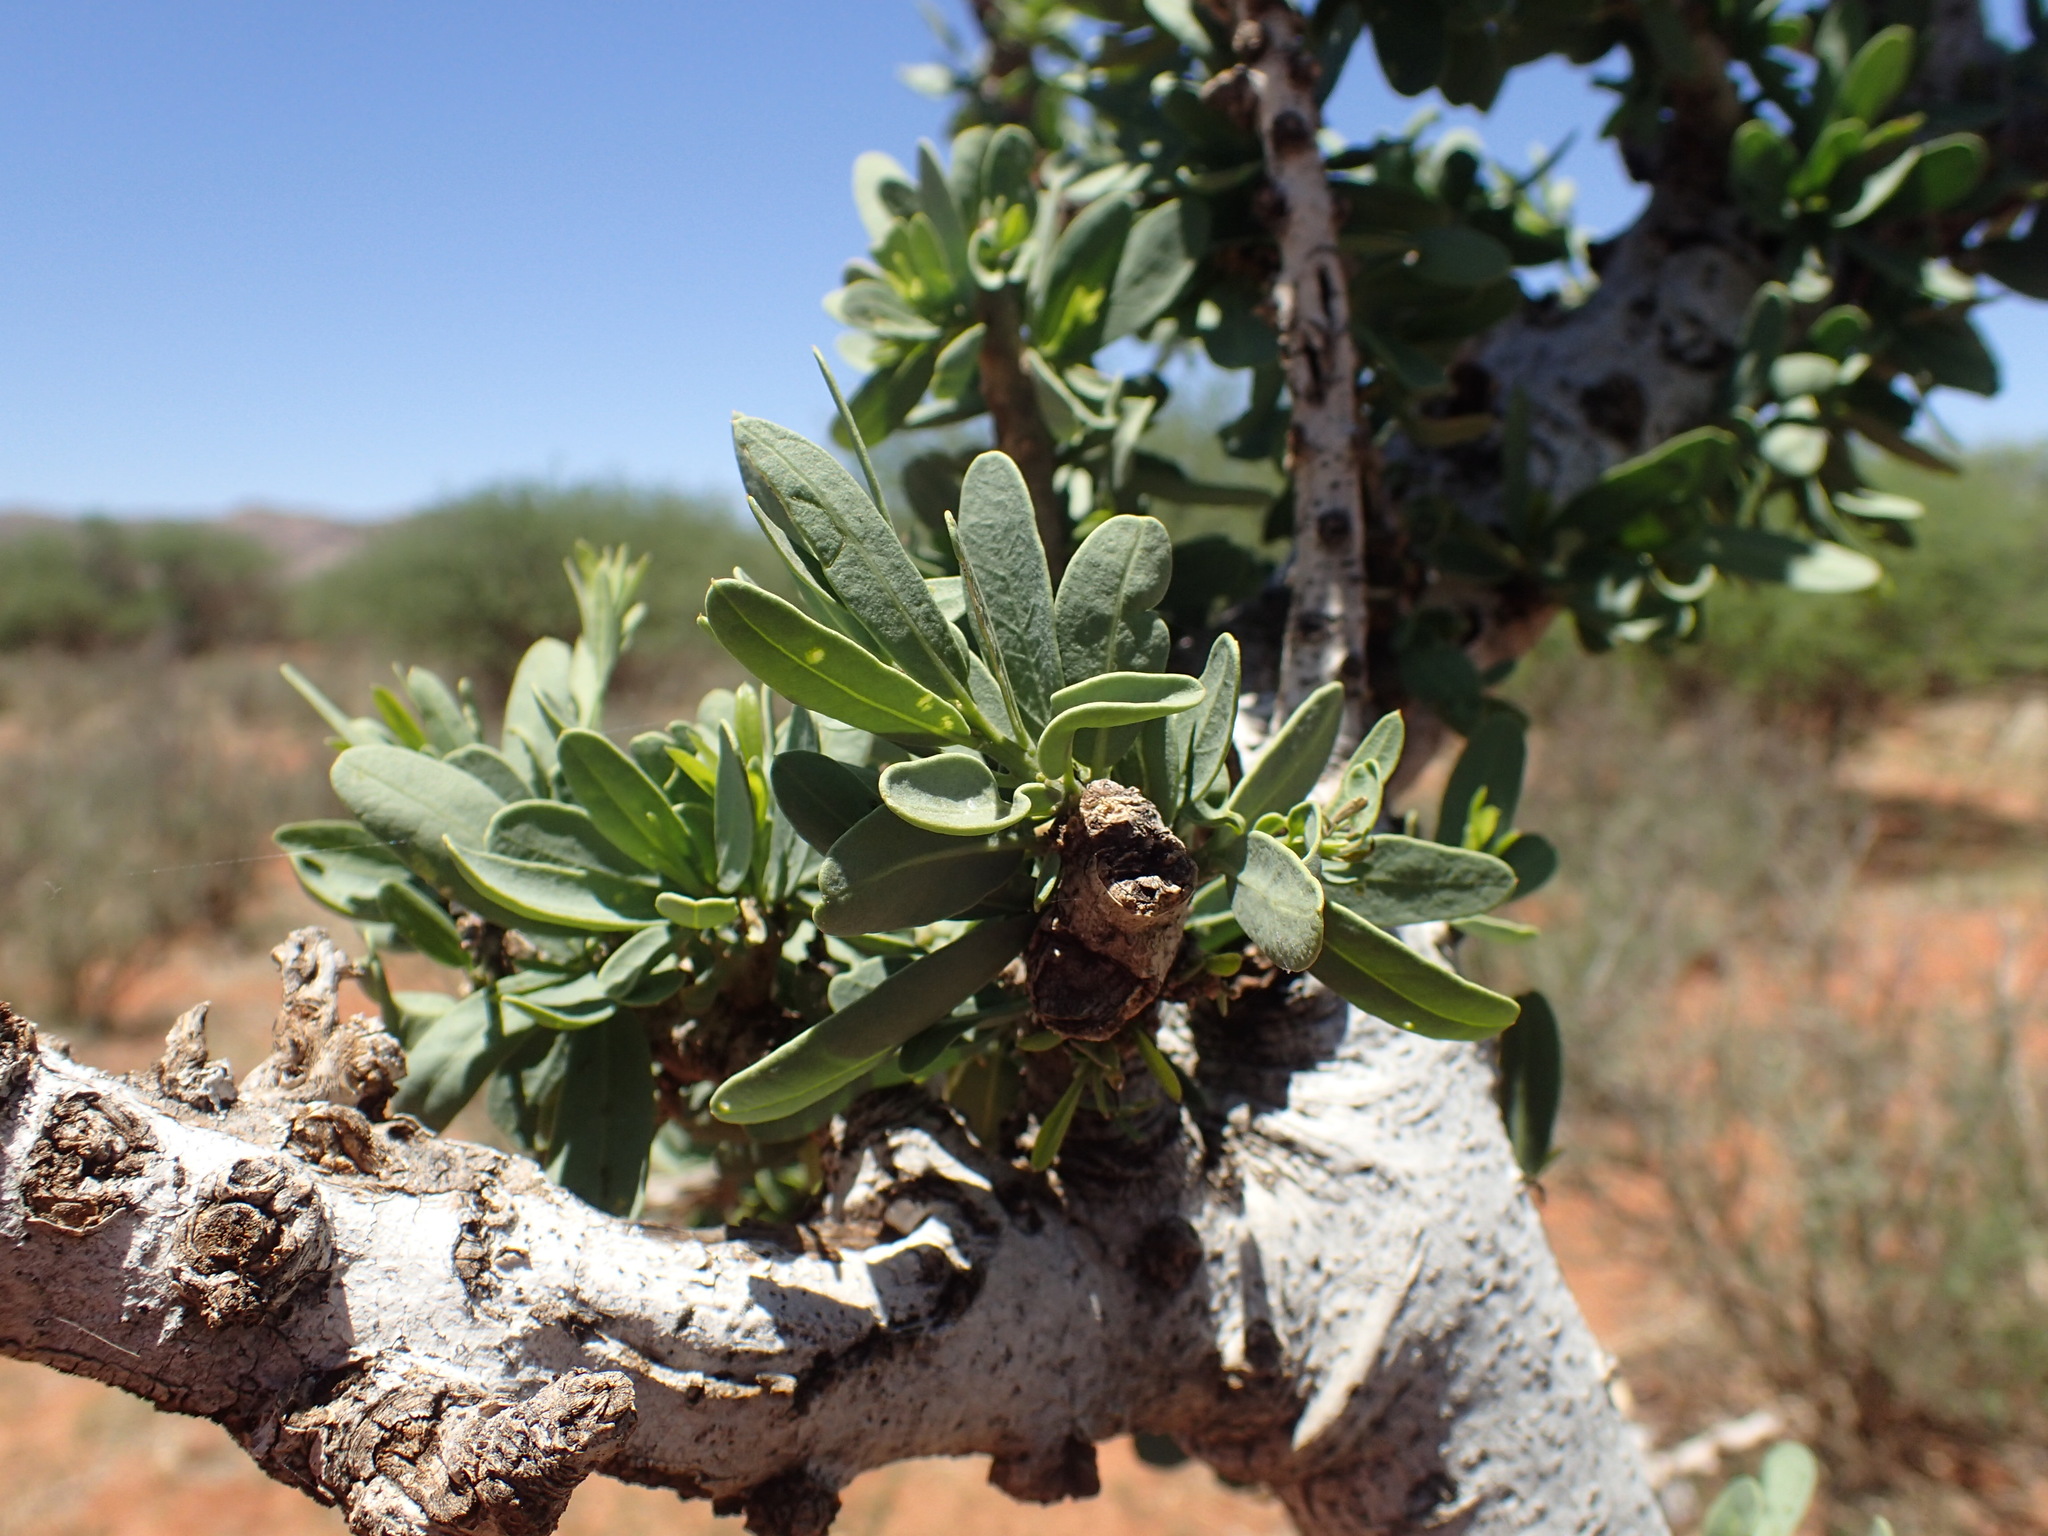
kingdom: Plantae
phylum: Tracheophyta
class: Magnoliopsida
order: Brassicales
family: Capparaceae
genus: Boscia
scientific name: Boscia albitrunca
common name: Caper bush
